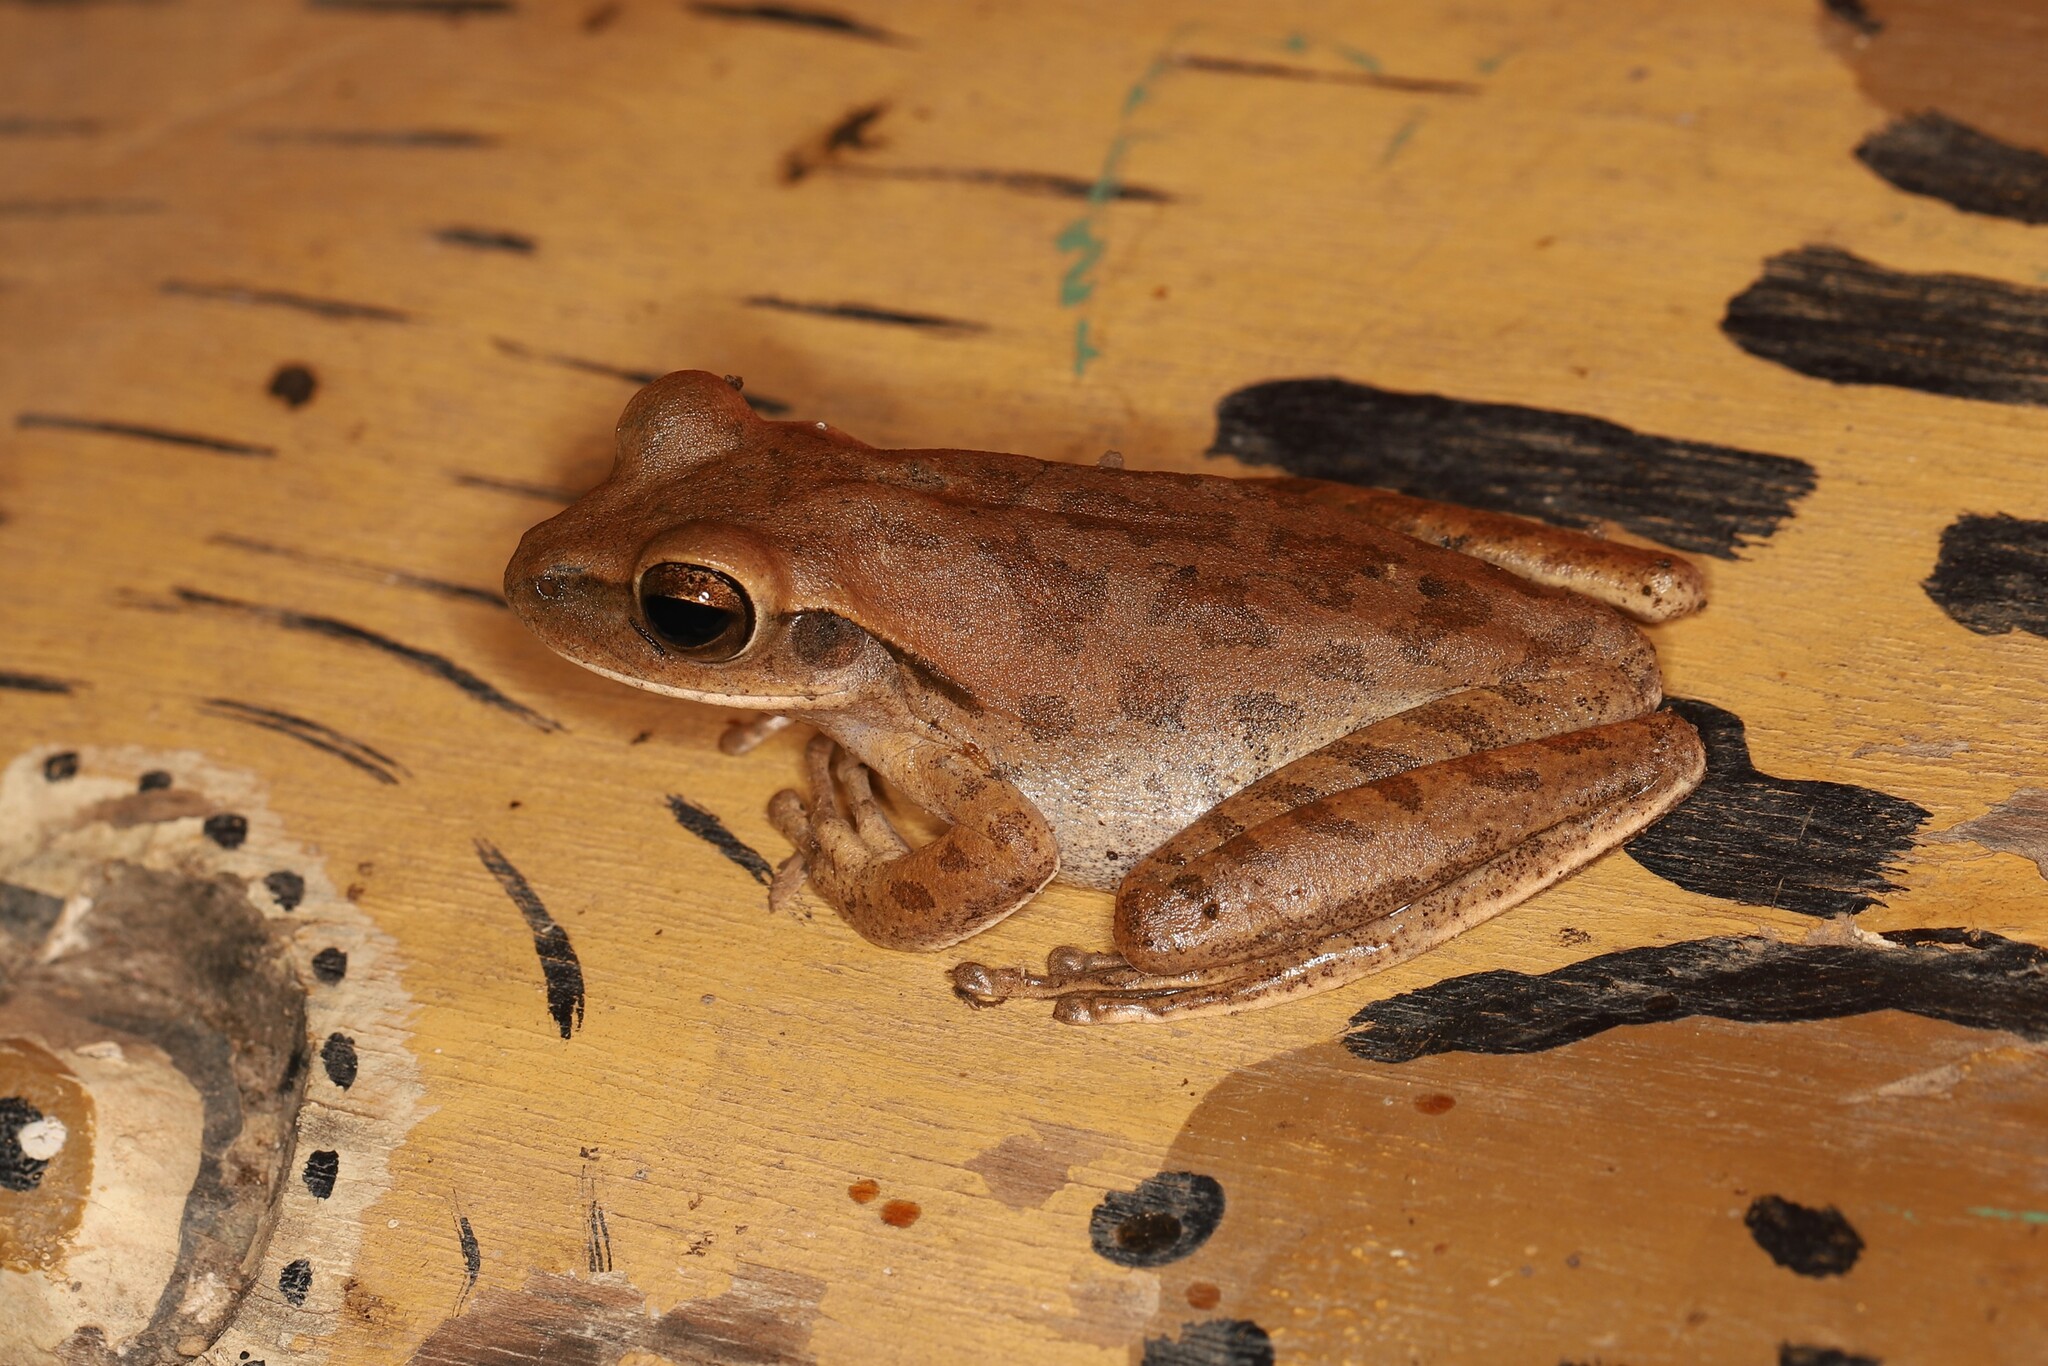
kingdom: Animalia
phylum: Chordata
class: Amphibia
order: Anura
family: Hylidae
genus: Boana
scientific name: Boana raniceps
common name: Chaco treefrog
